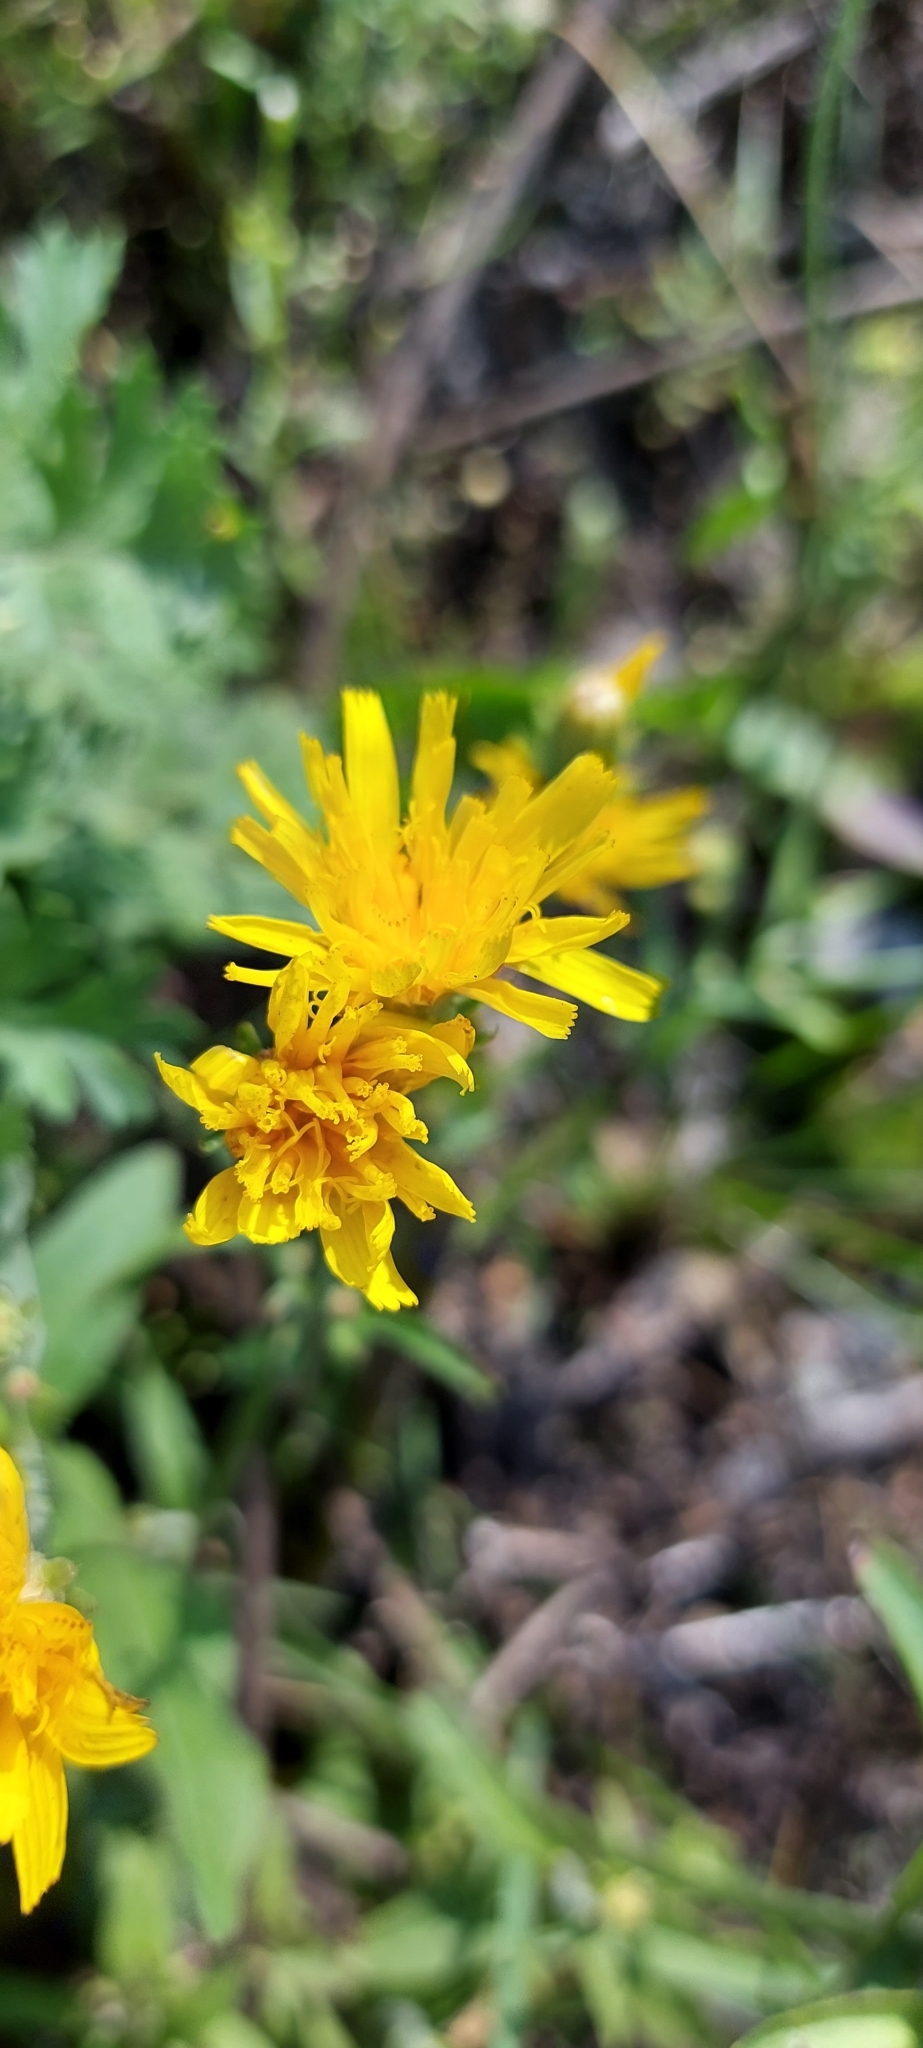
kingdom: Plantae
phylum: Tracheophyta
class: Magnoliopsida
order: Asterales
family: Asteraceae
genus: Picris
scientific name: Picris hieracioides
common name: Hawkweed oxtongue
